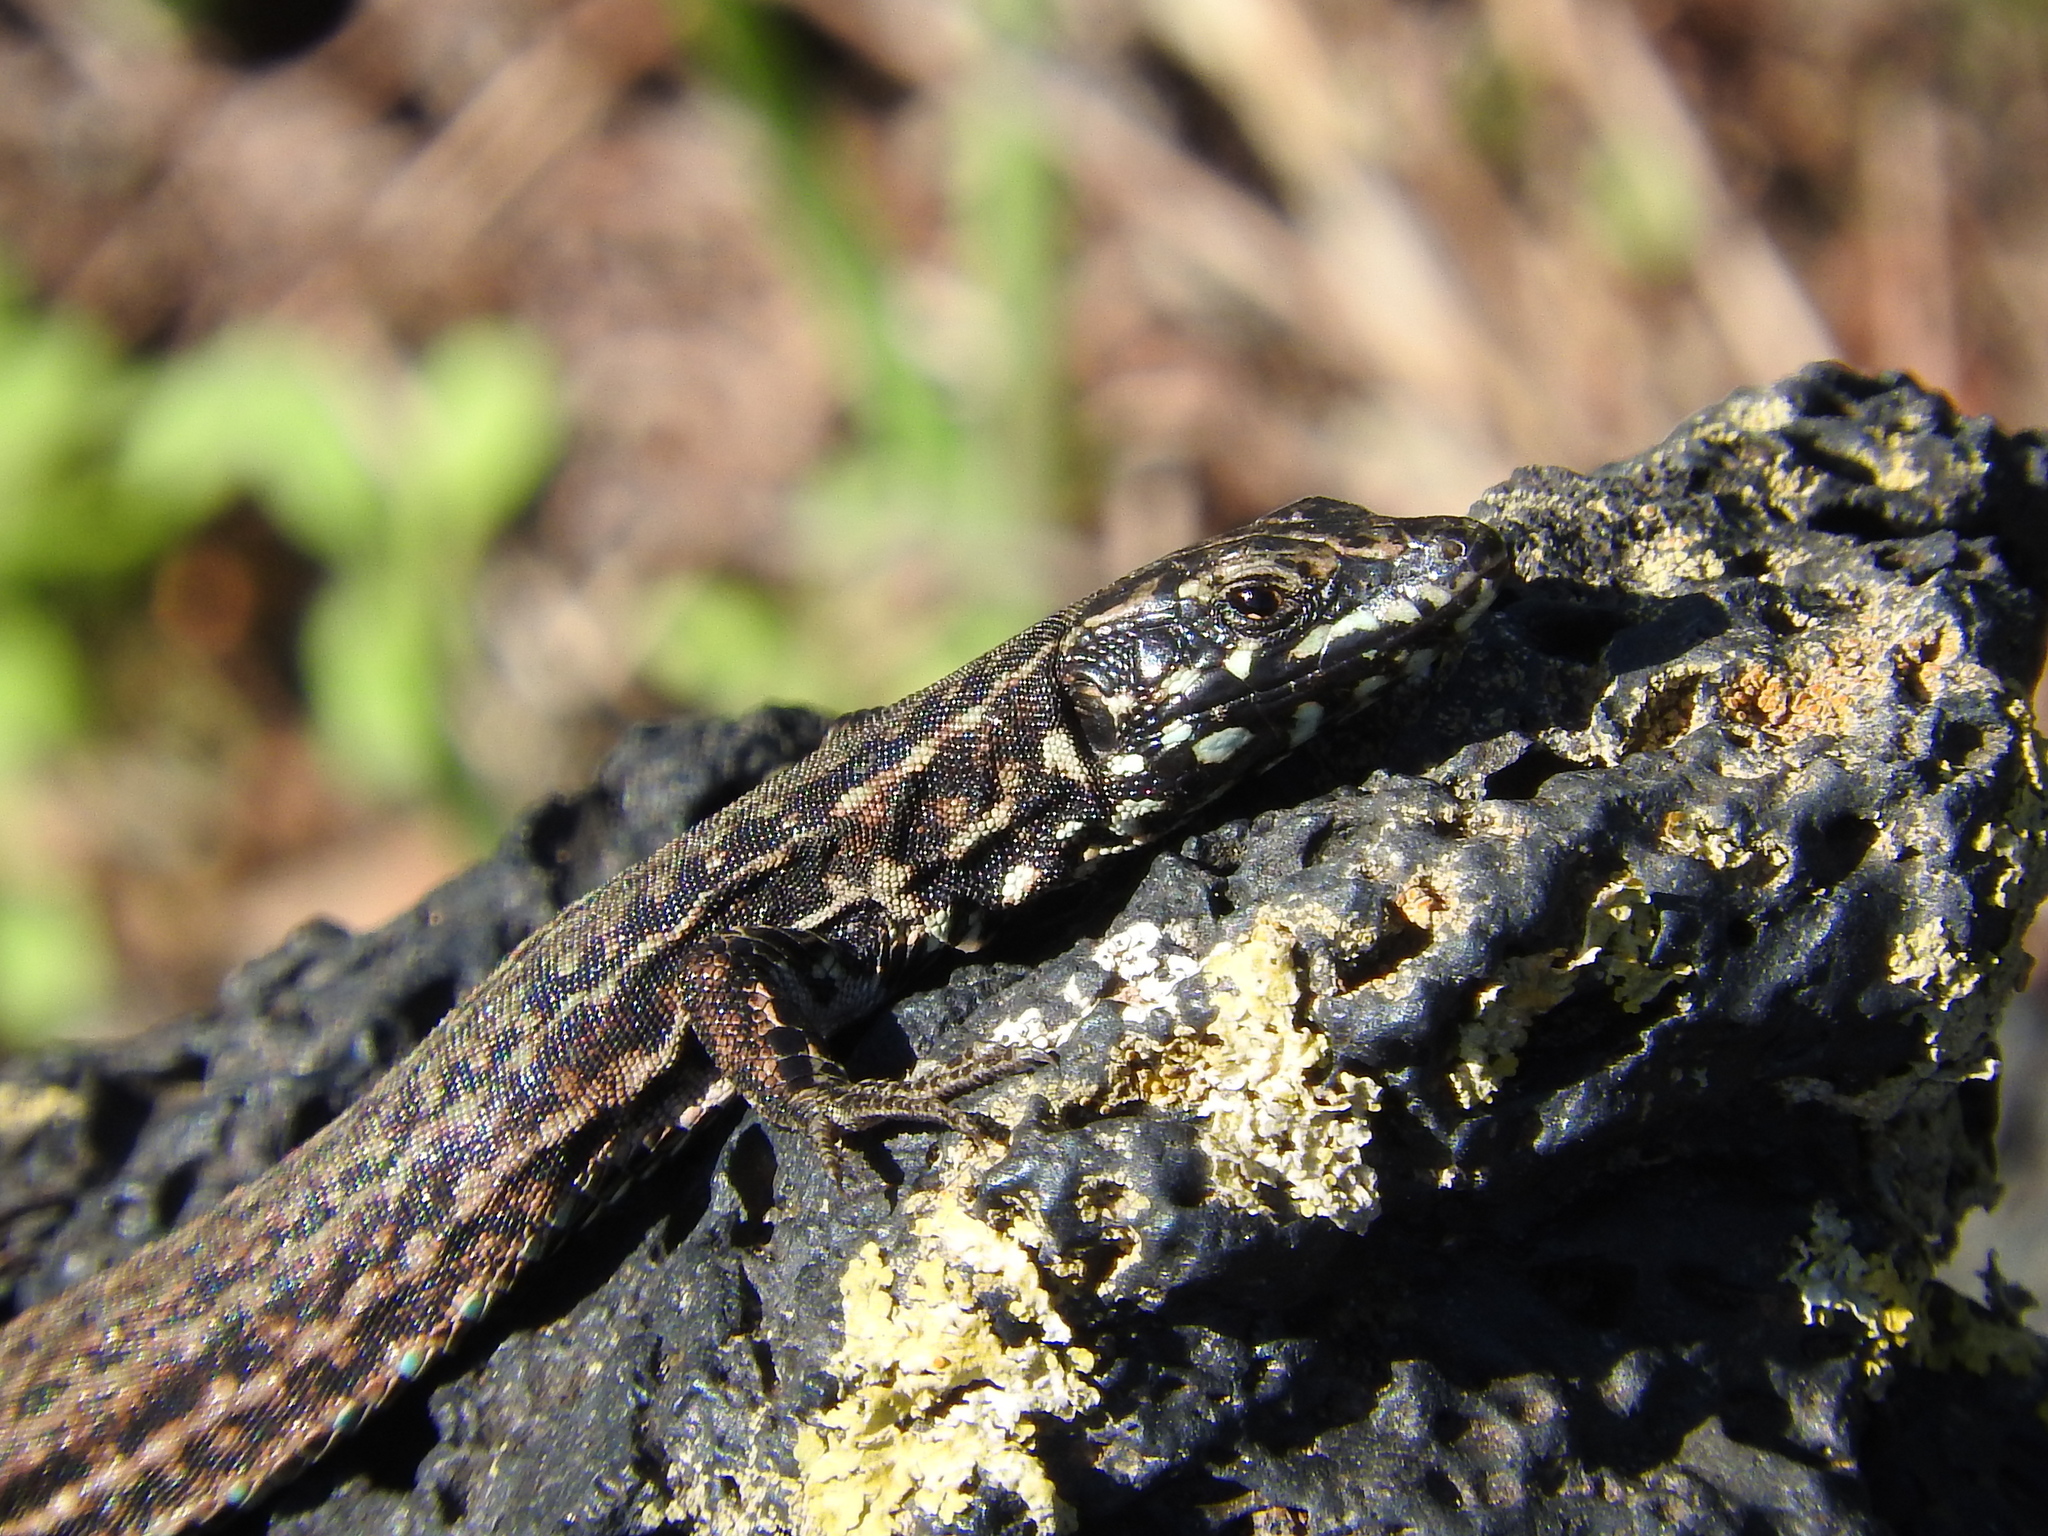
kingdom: Animalia
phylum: Chordata
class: Squamata
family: Lacertidae
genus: Podarcis
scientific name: Podarcis filfolensis
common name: Maltese wall lizard
